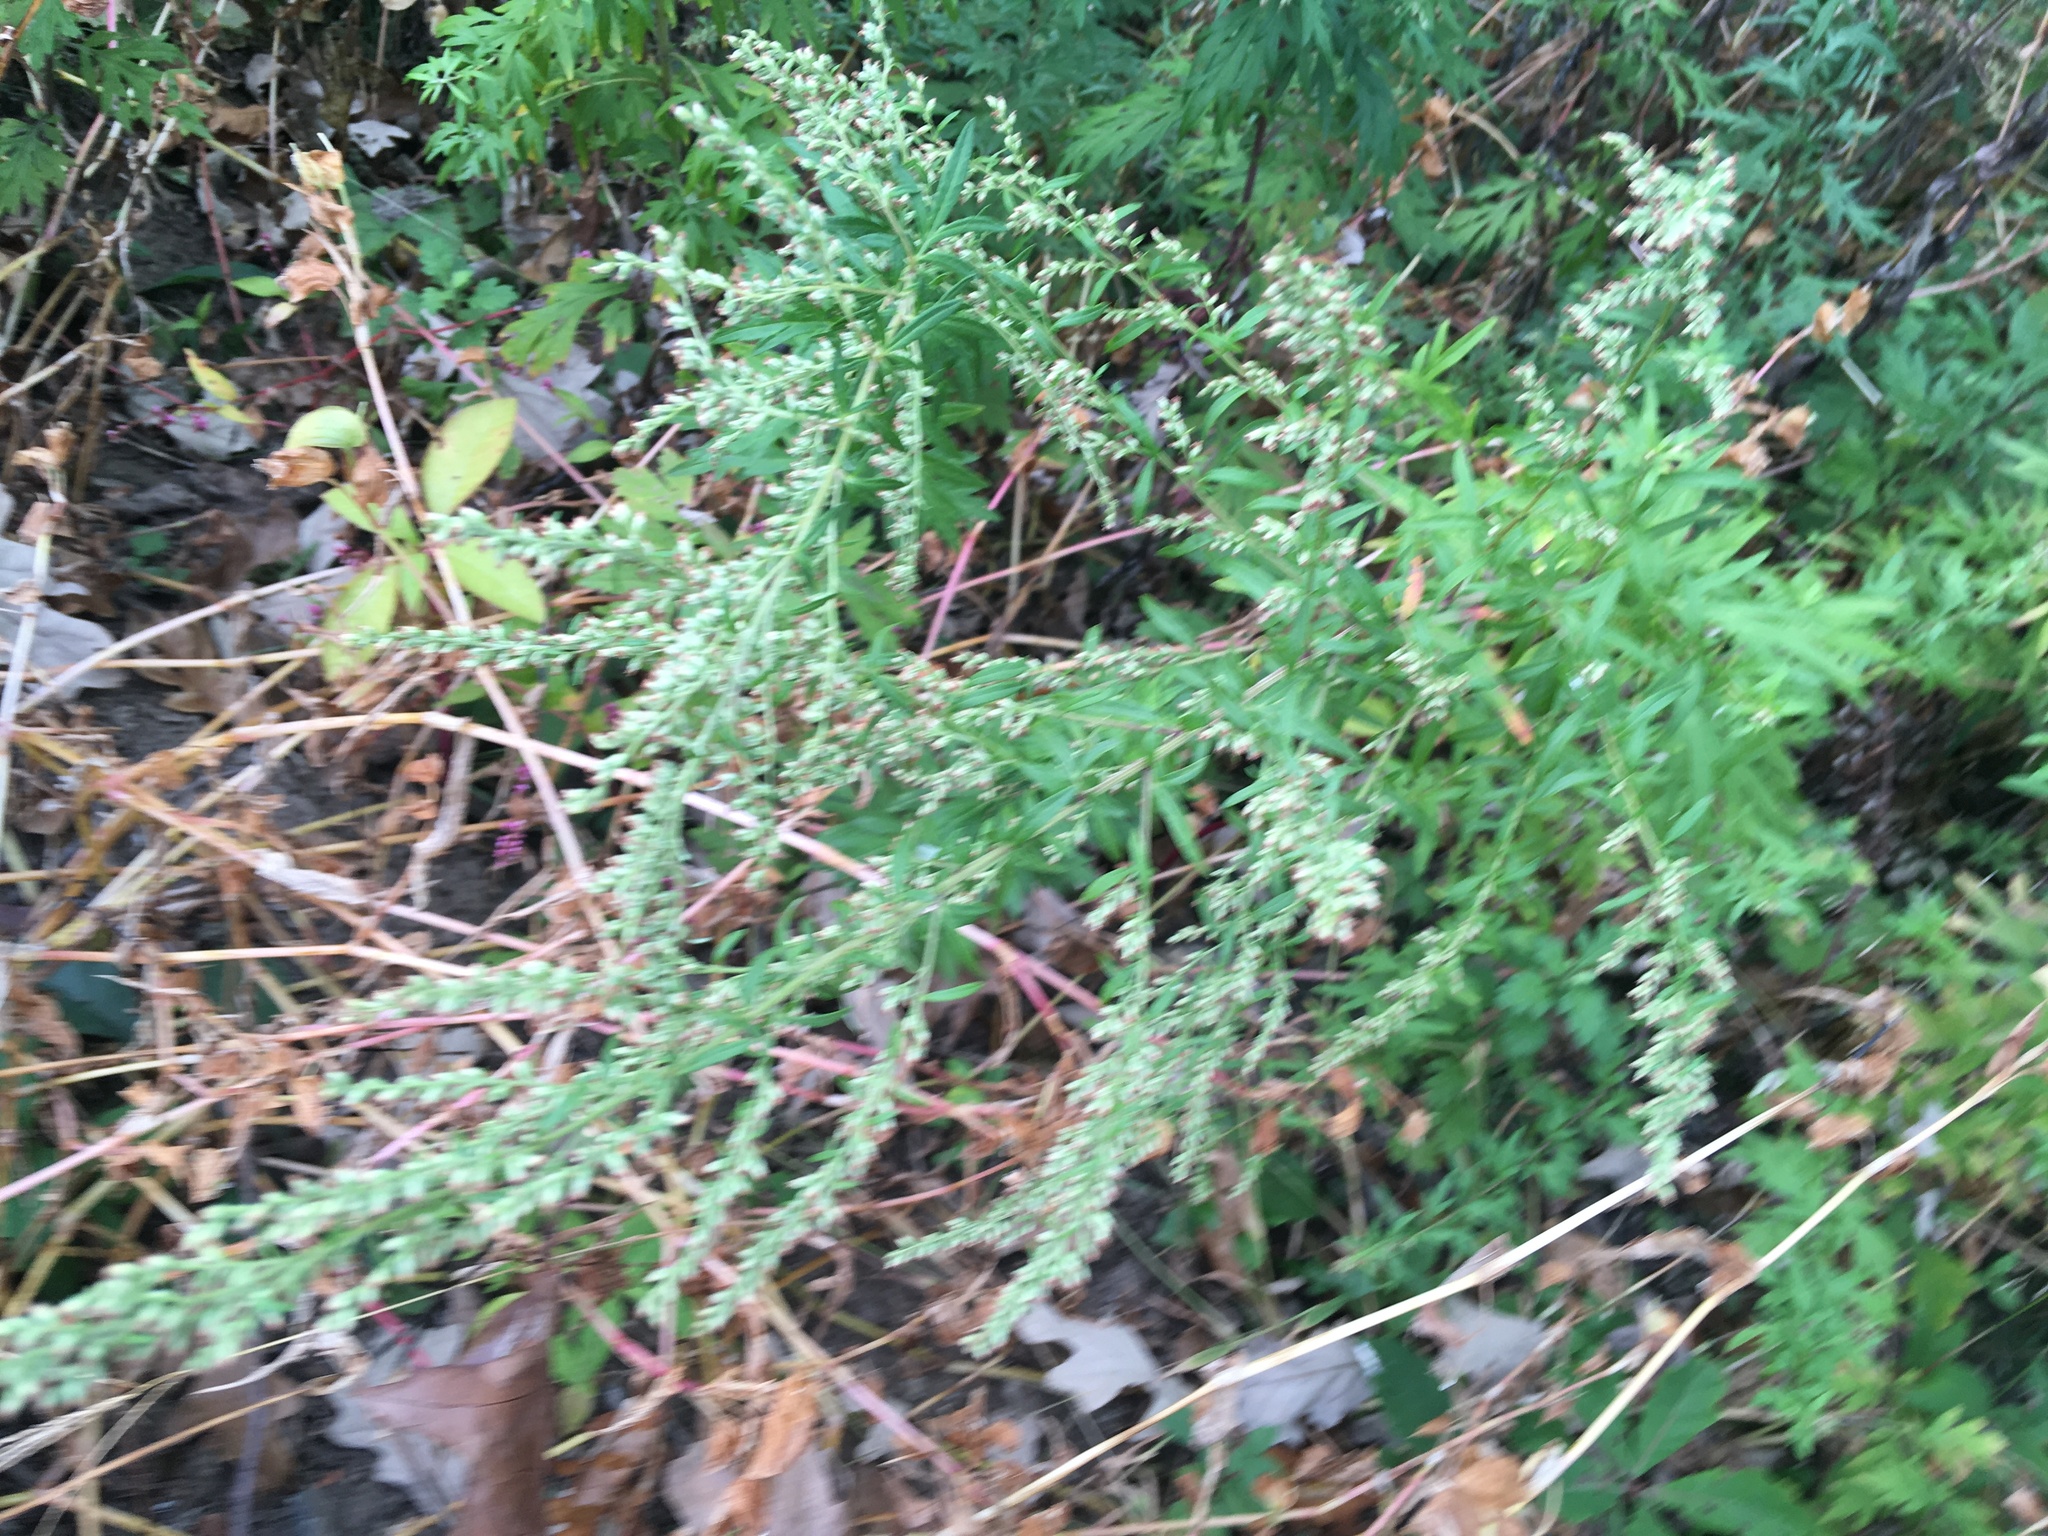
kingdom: Plantae
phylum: Tracheophyta
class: Magnoliopsida
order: Asterales
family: Asteraceae
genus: Artemisia
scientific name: Artemisia vulgaris
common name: Mugwort
